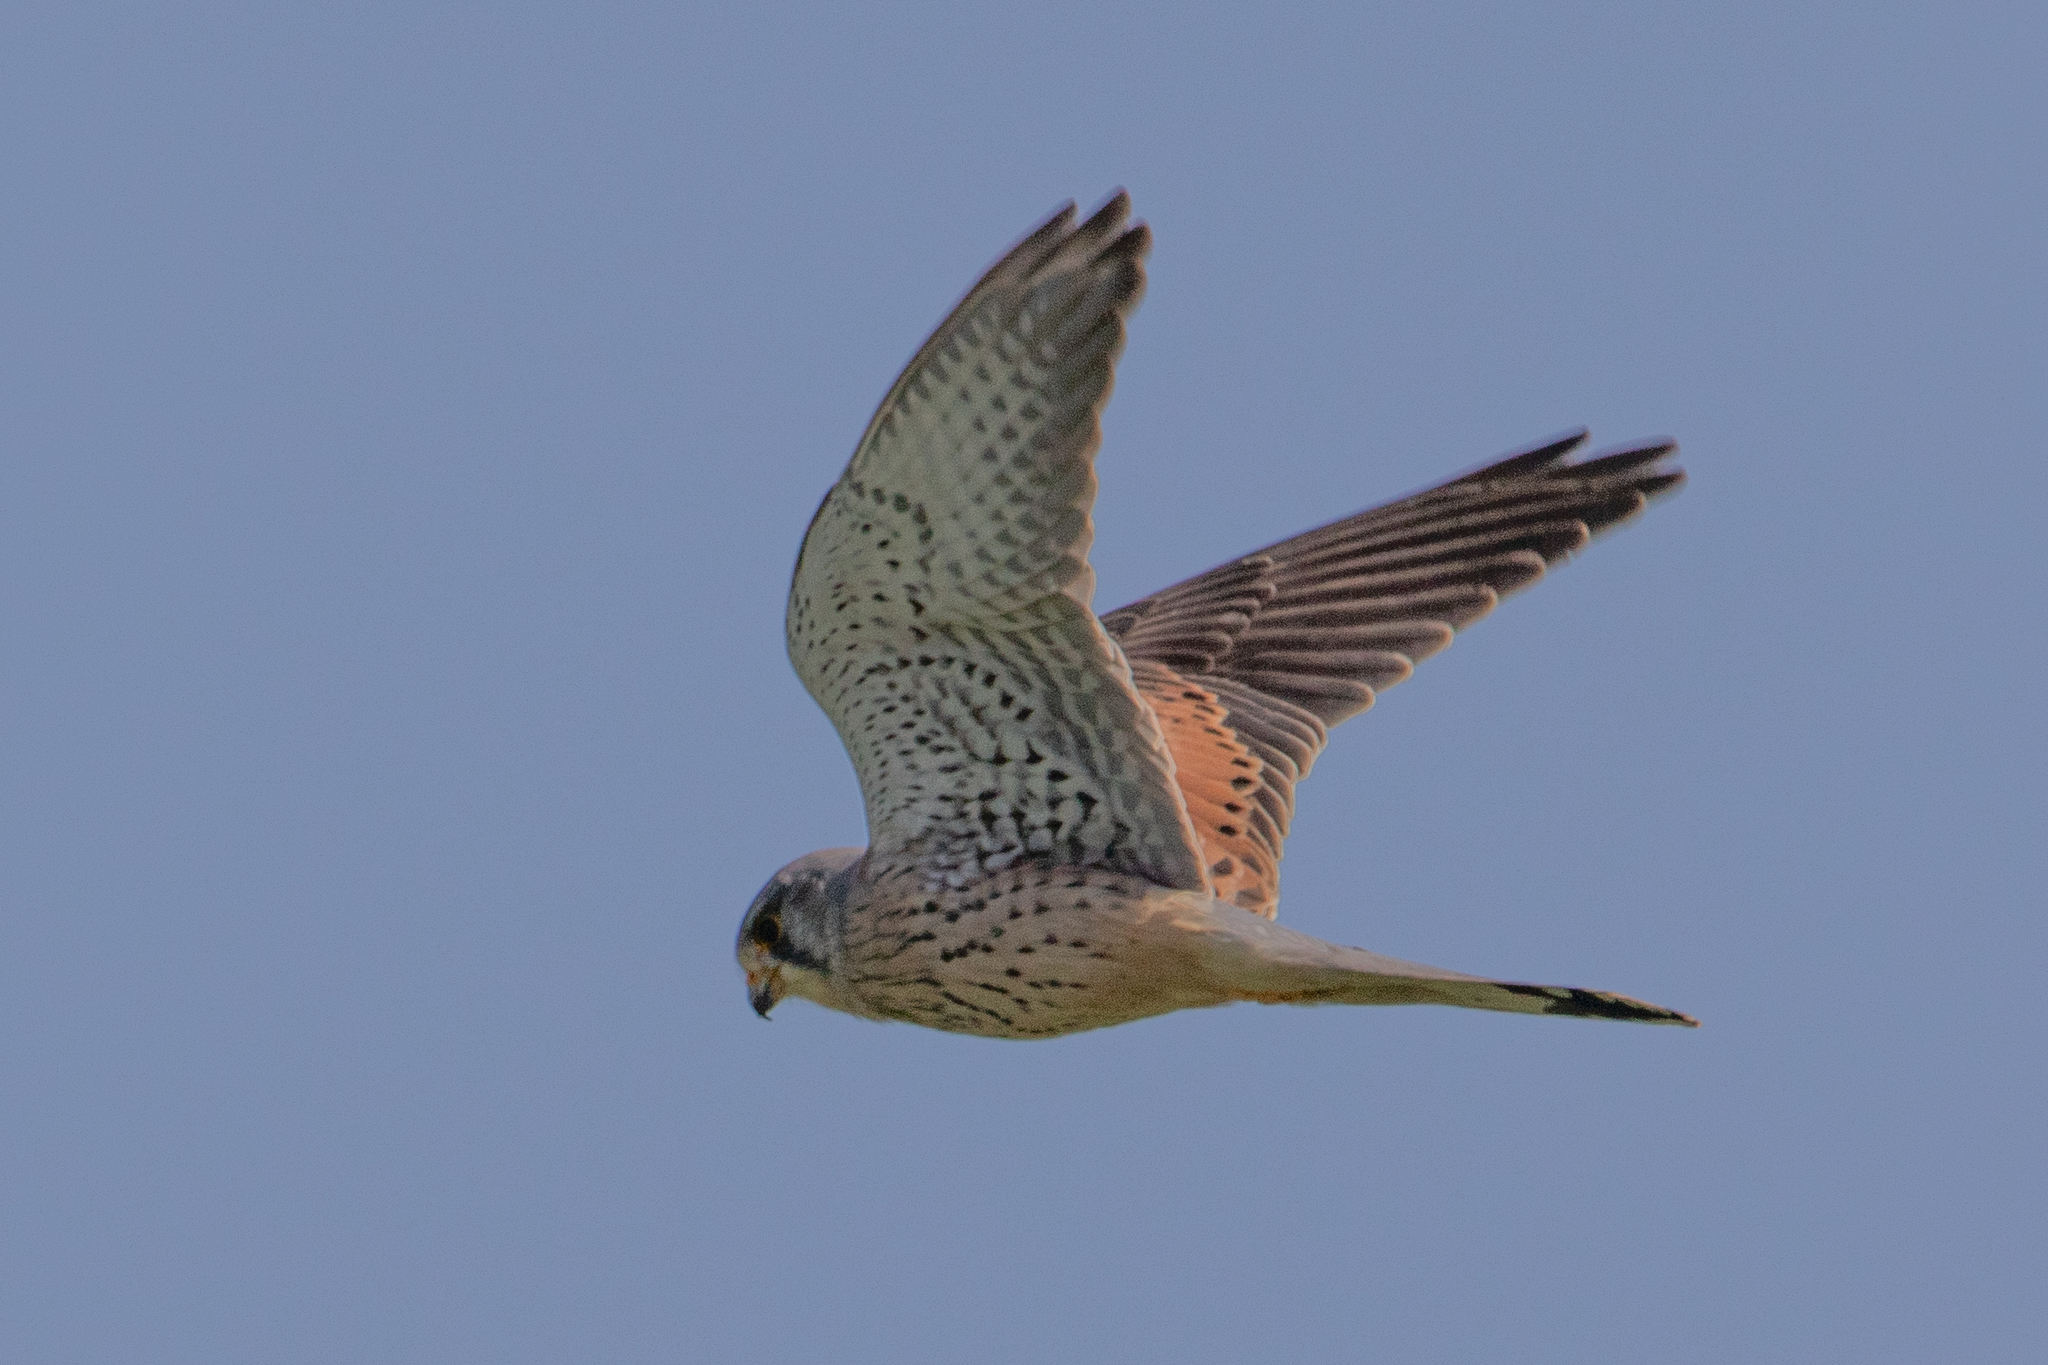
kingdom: Animalia
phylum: Chordata
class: Aves
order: Falconiformes
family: Falconidae
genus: Falco
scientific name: Falco tinnunculus
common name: Common kestrel
